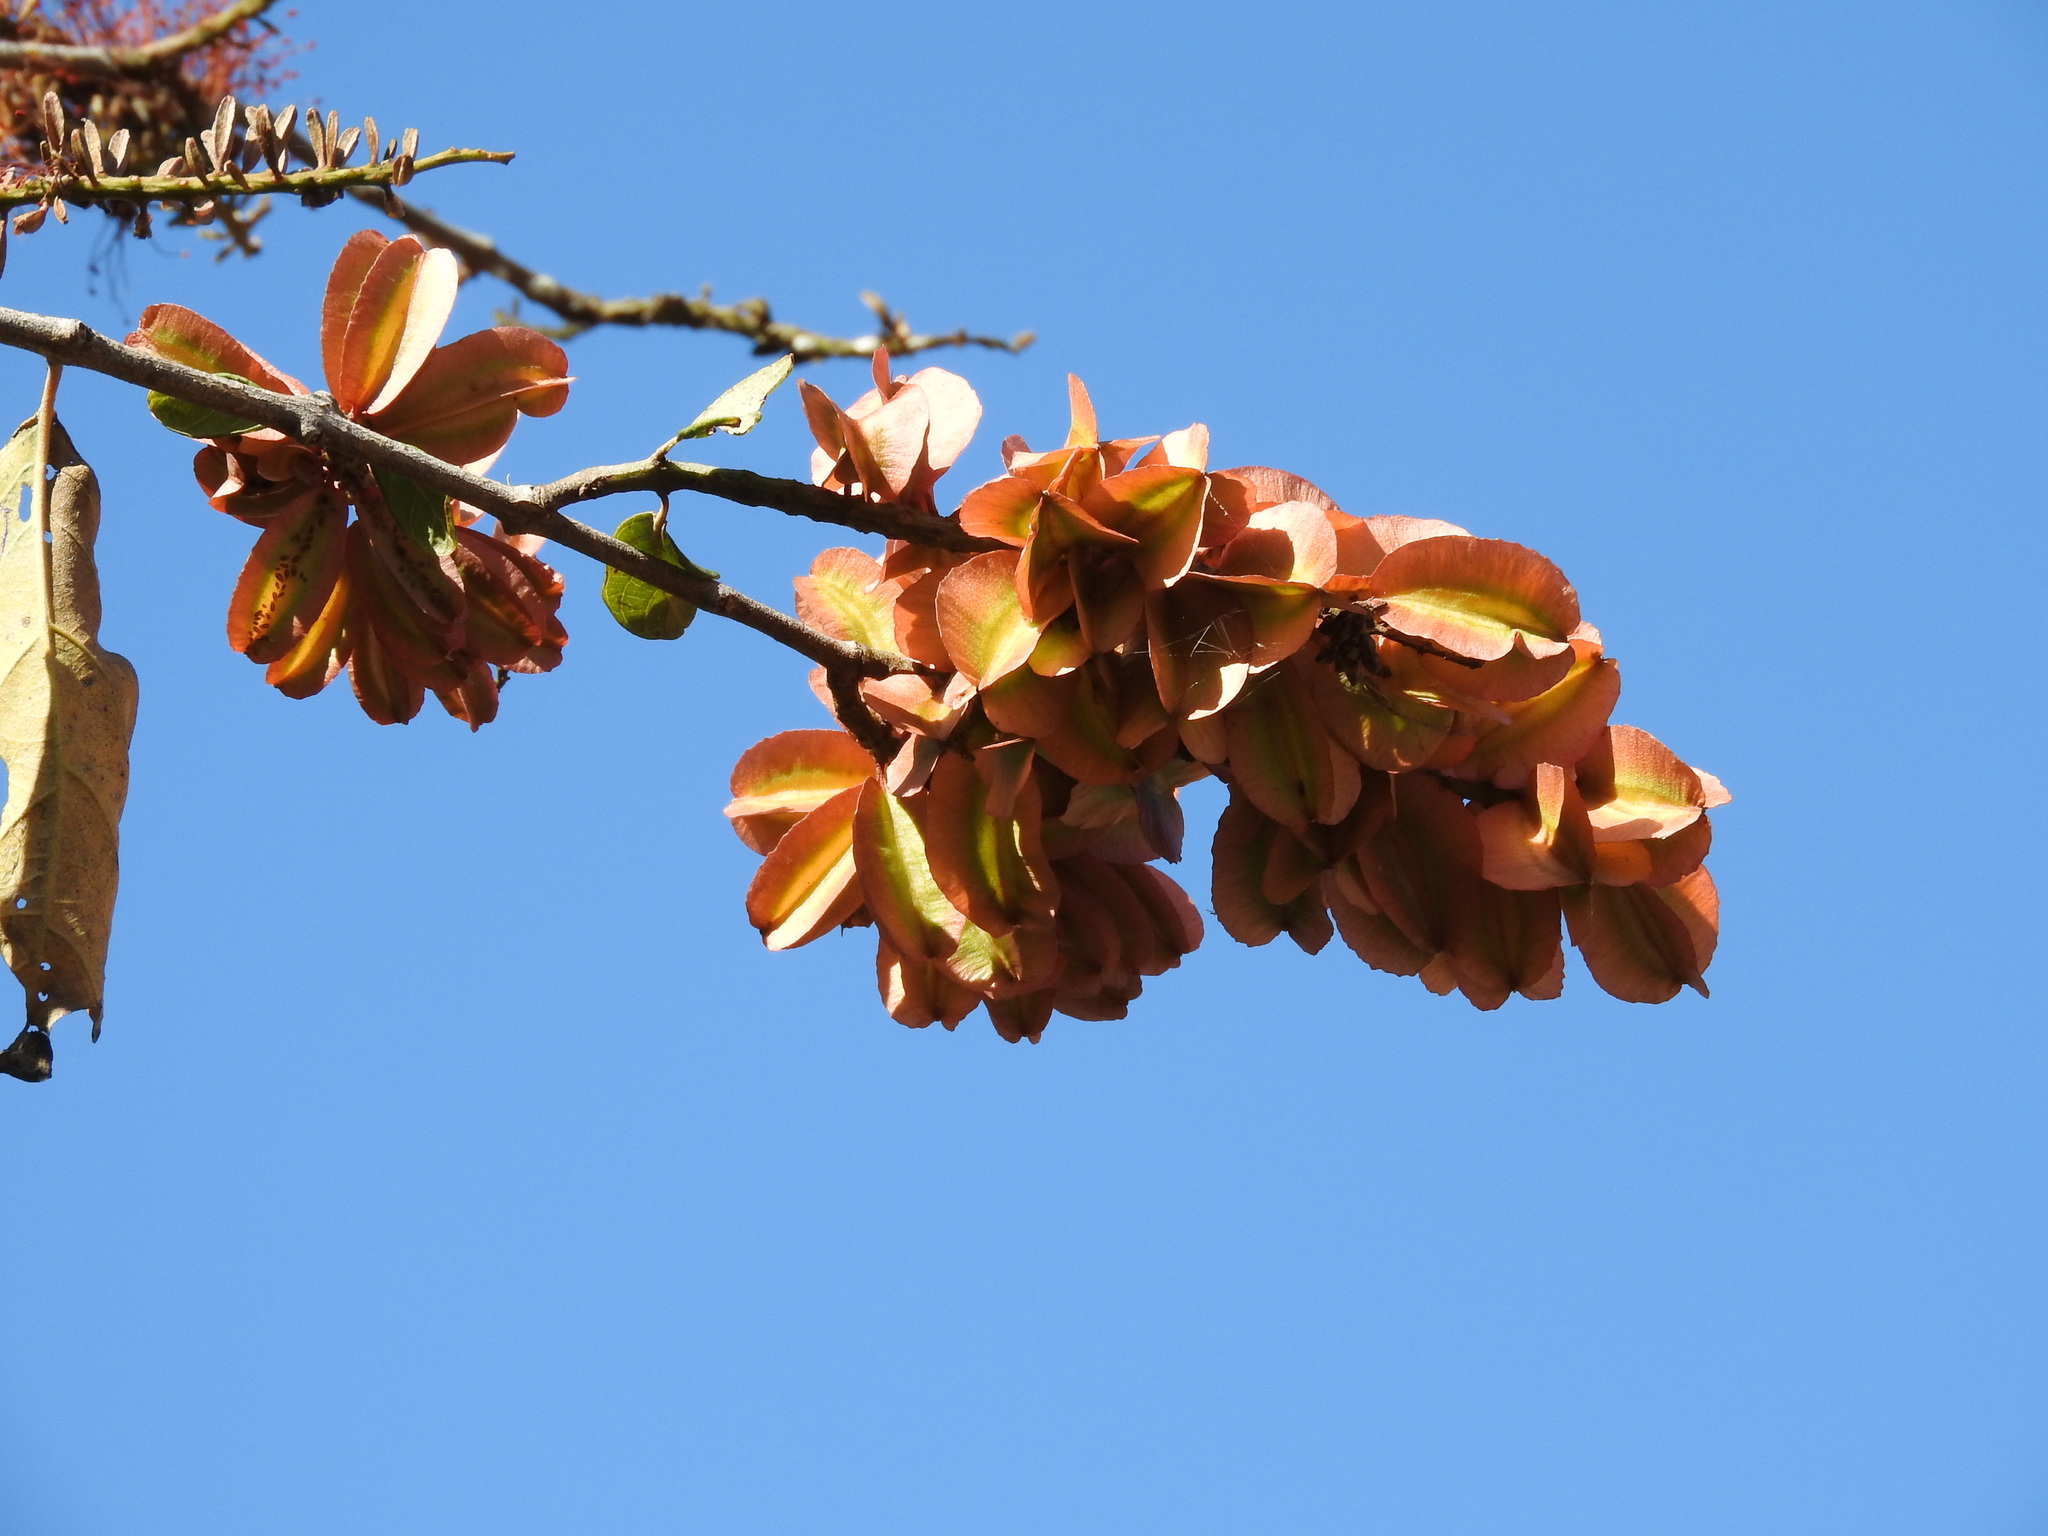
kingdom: Plantae
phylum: Tracheophyta
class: Magnoliopsida
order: Myrtales
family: Combretaceae
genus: Combretum
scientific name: Combretum farinosum
